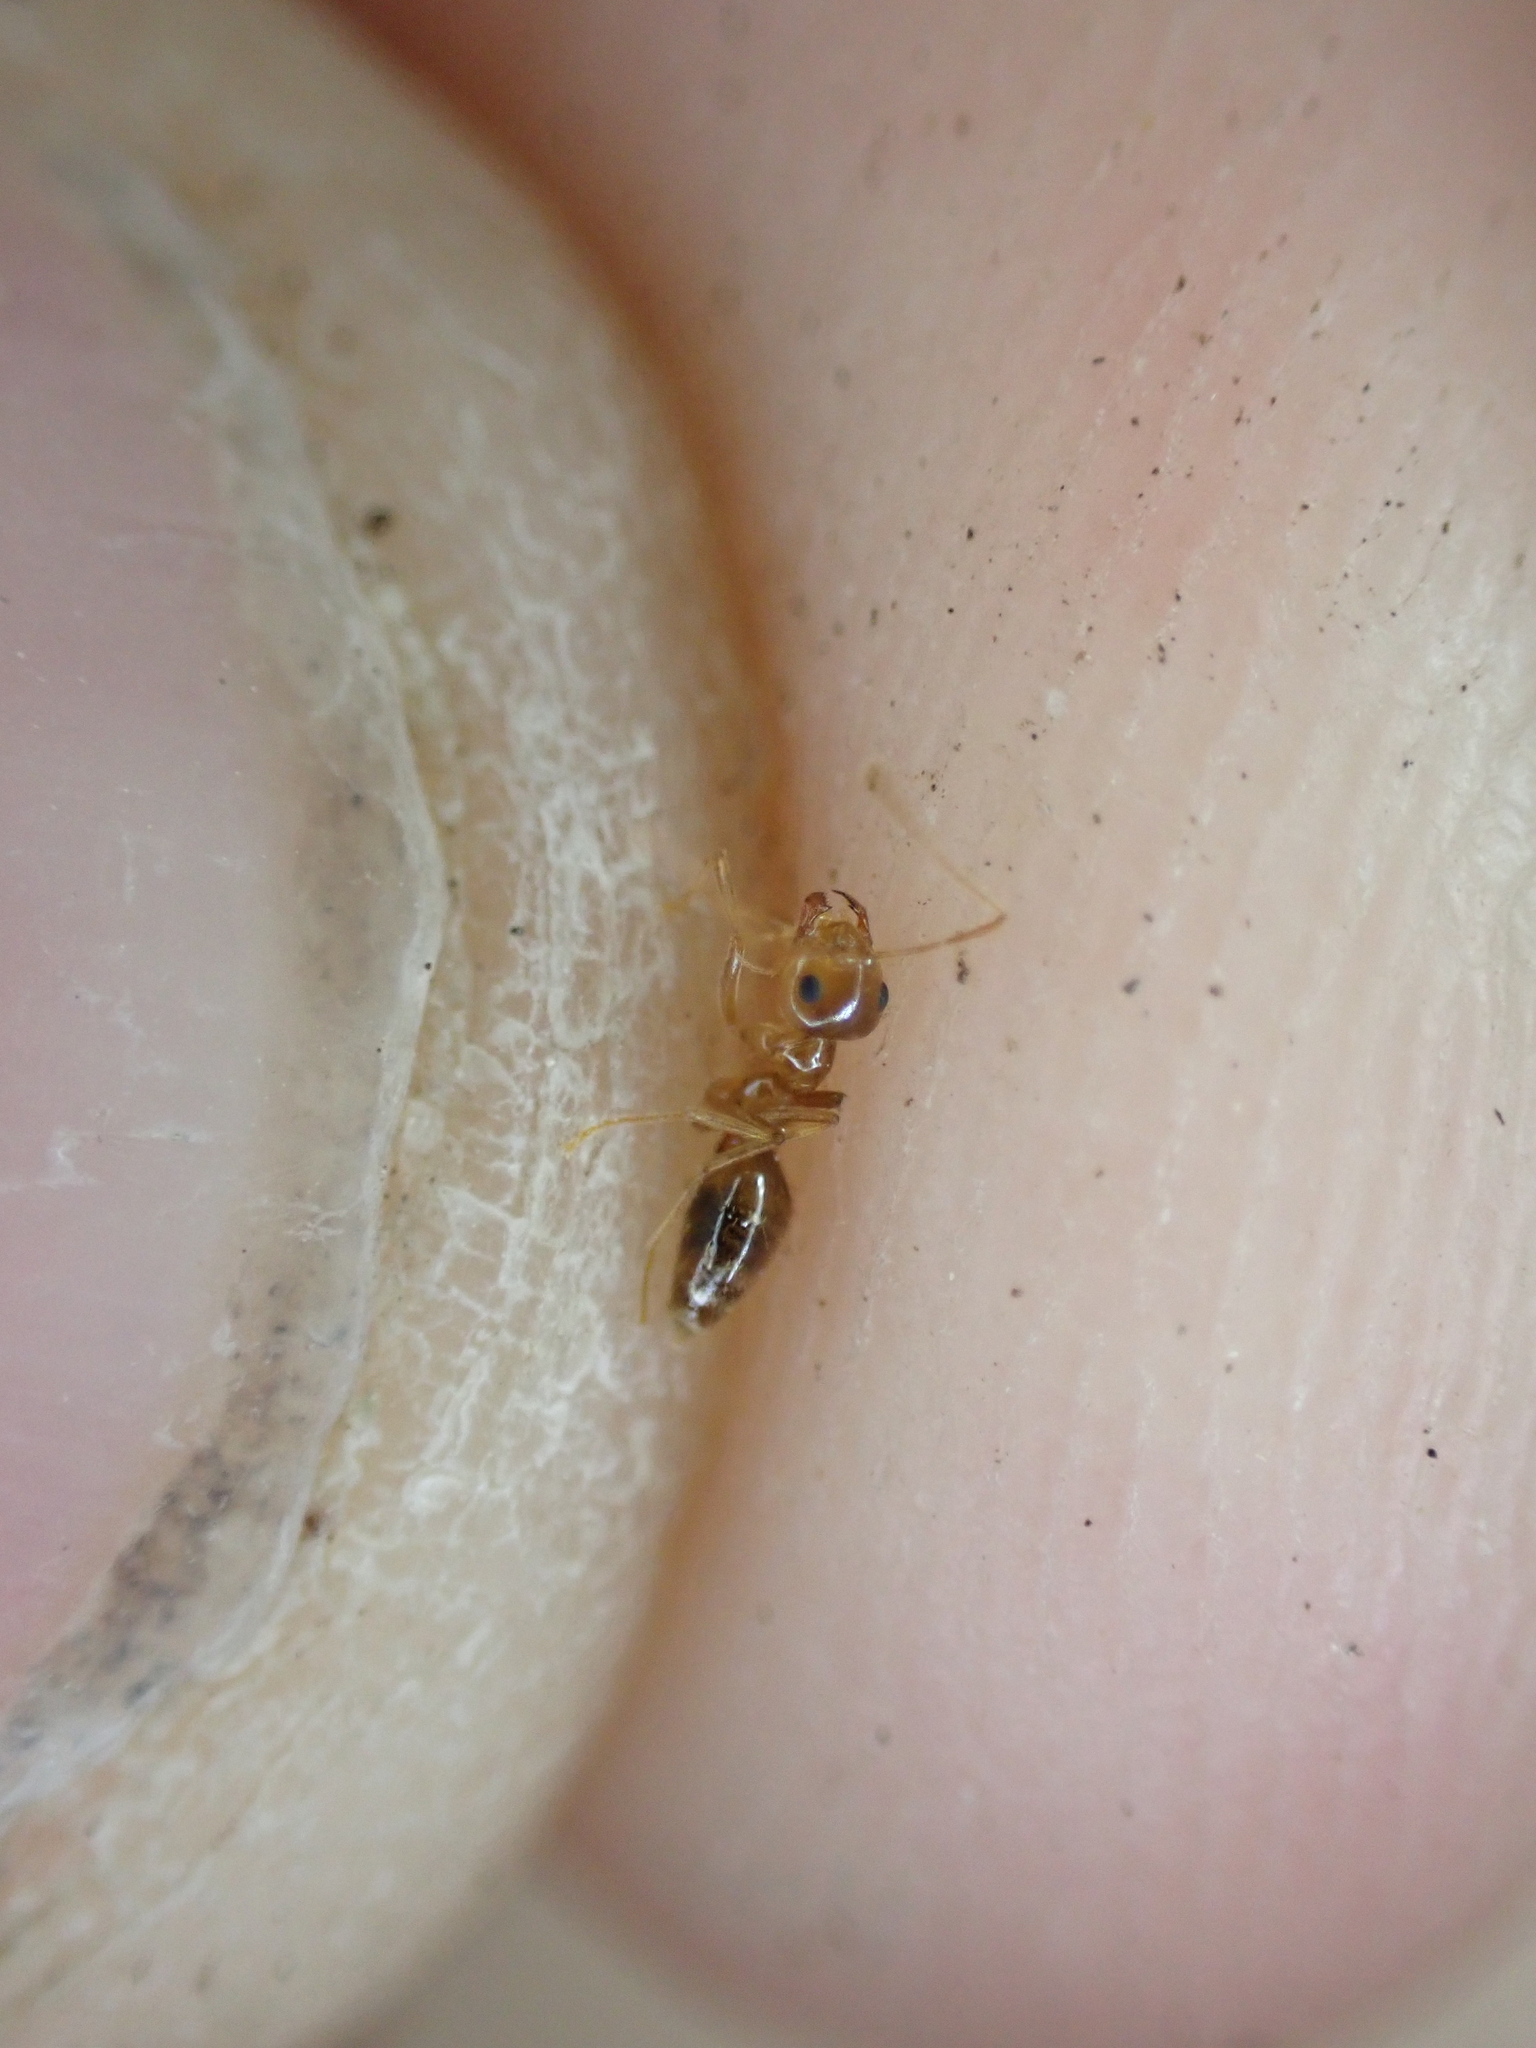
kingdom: Animalia
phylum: Arthropoda
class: Insecta
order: Hymenoptera
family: Formicidae
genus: Prenolepis
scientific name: Prenolepis imparis
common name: Small honey ant
